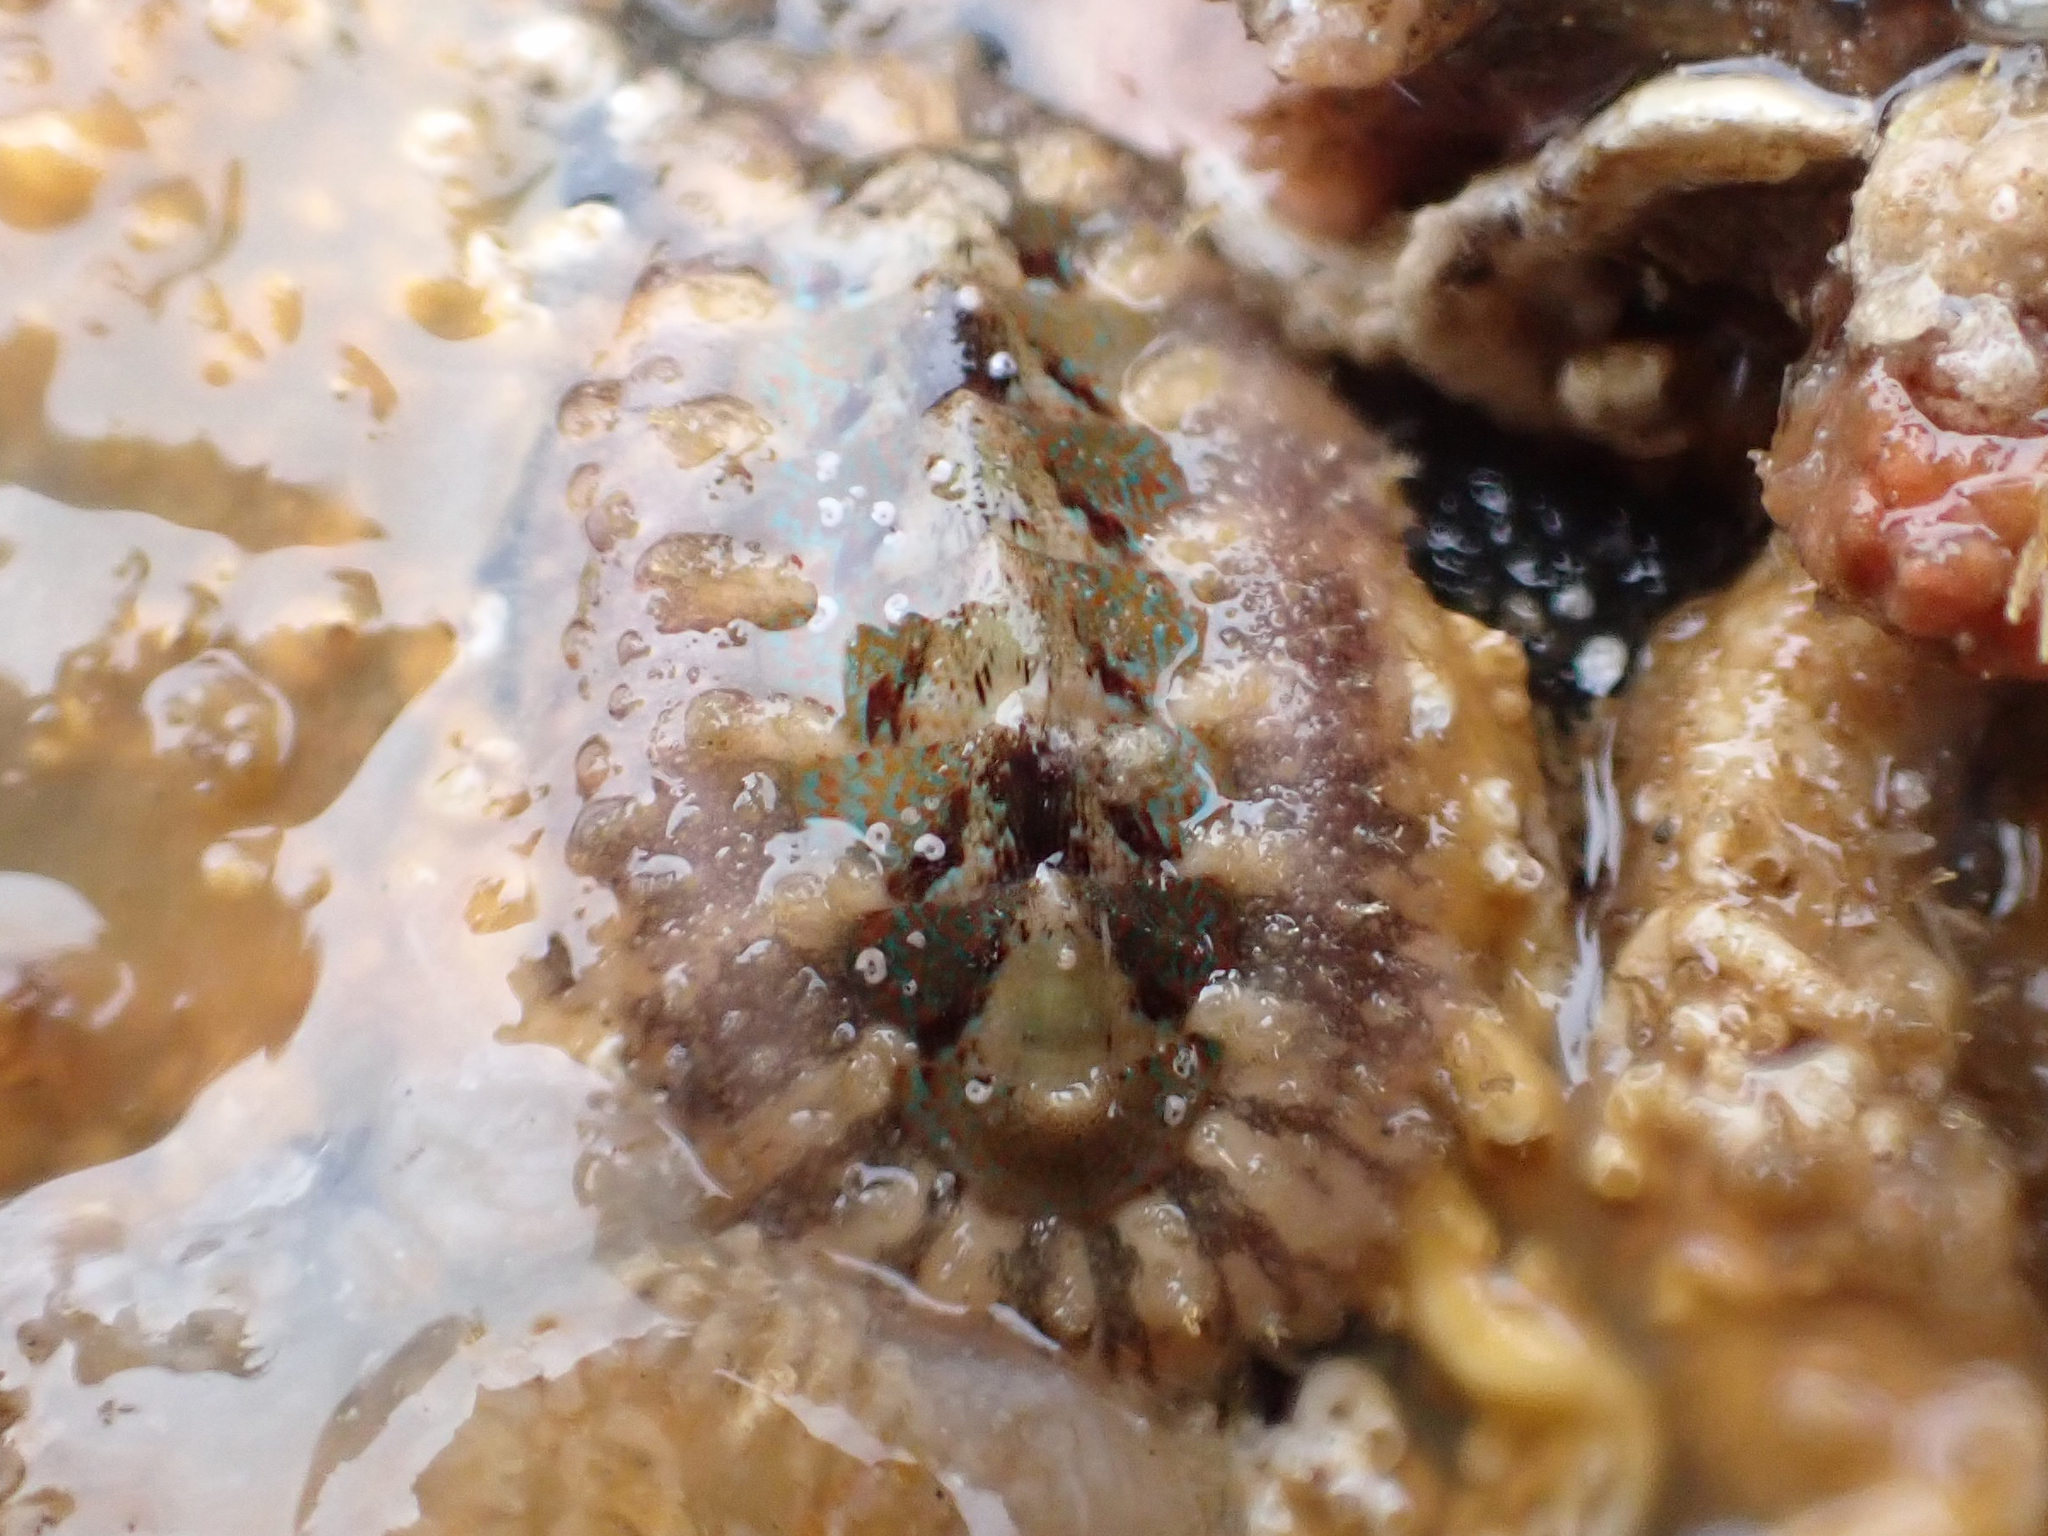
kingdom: Animalia
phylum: Mollusca
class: Polyplacophora
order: Chitonida
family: Mopaliidae
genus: Mopalia
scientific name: Mopalia spectabilis
